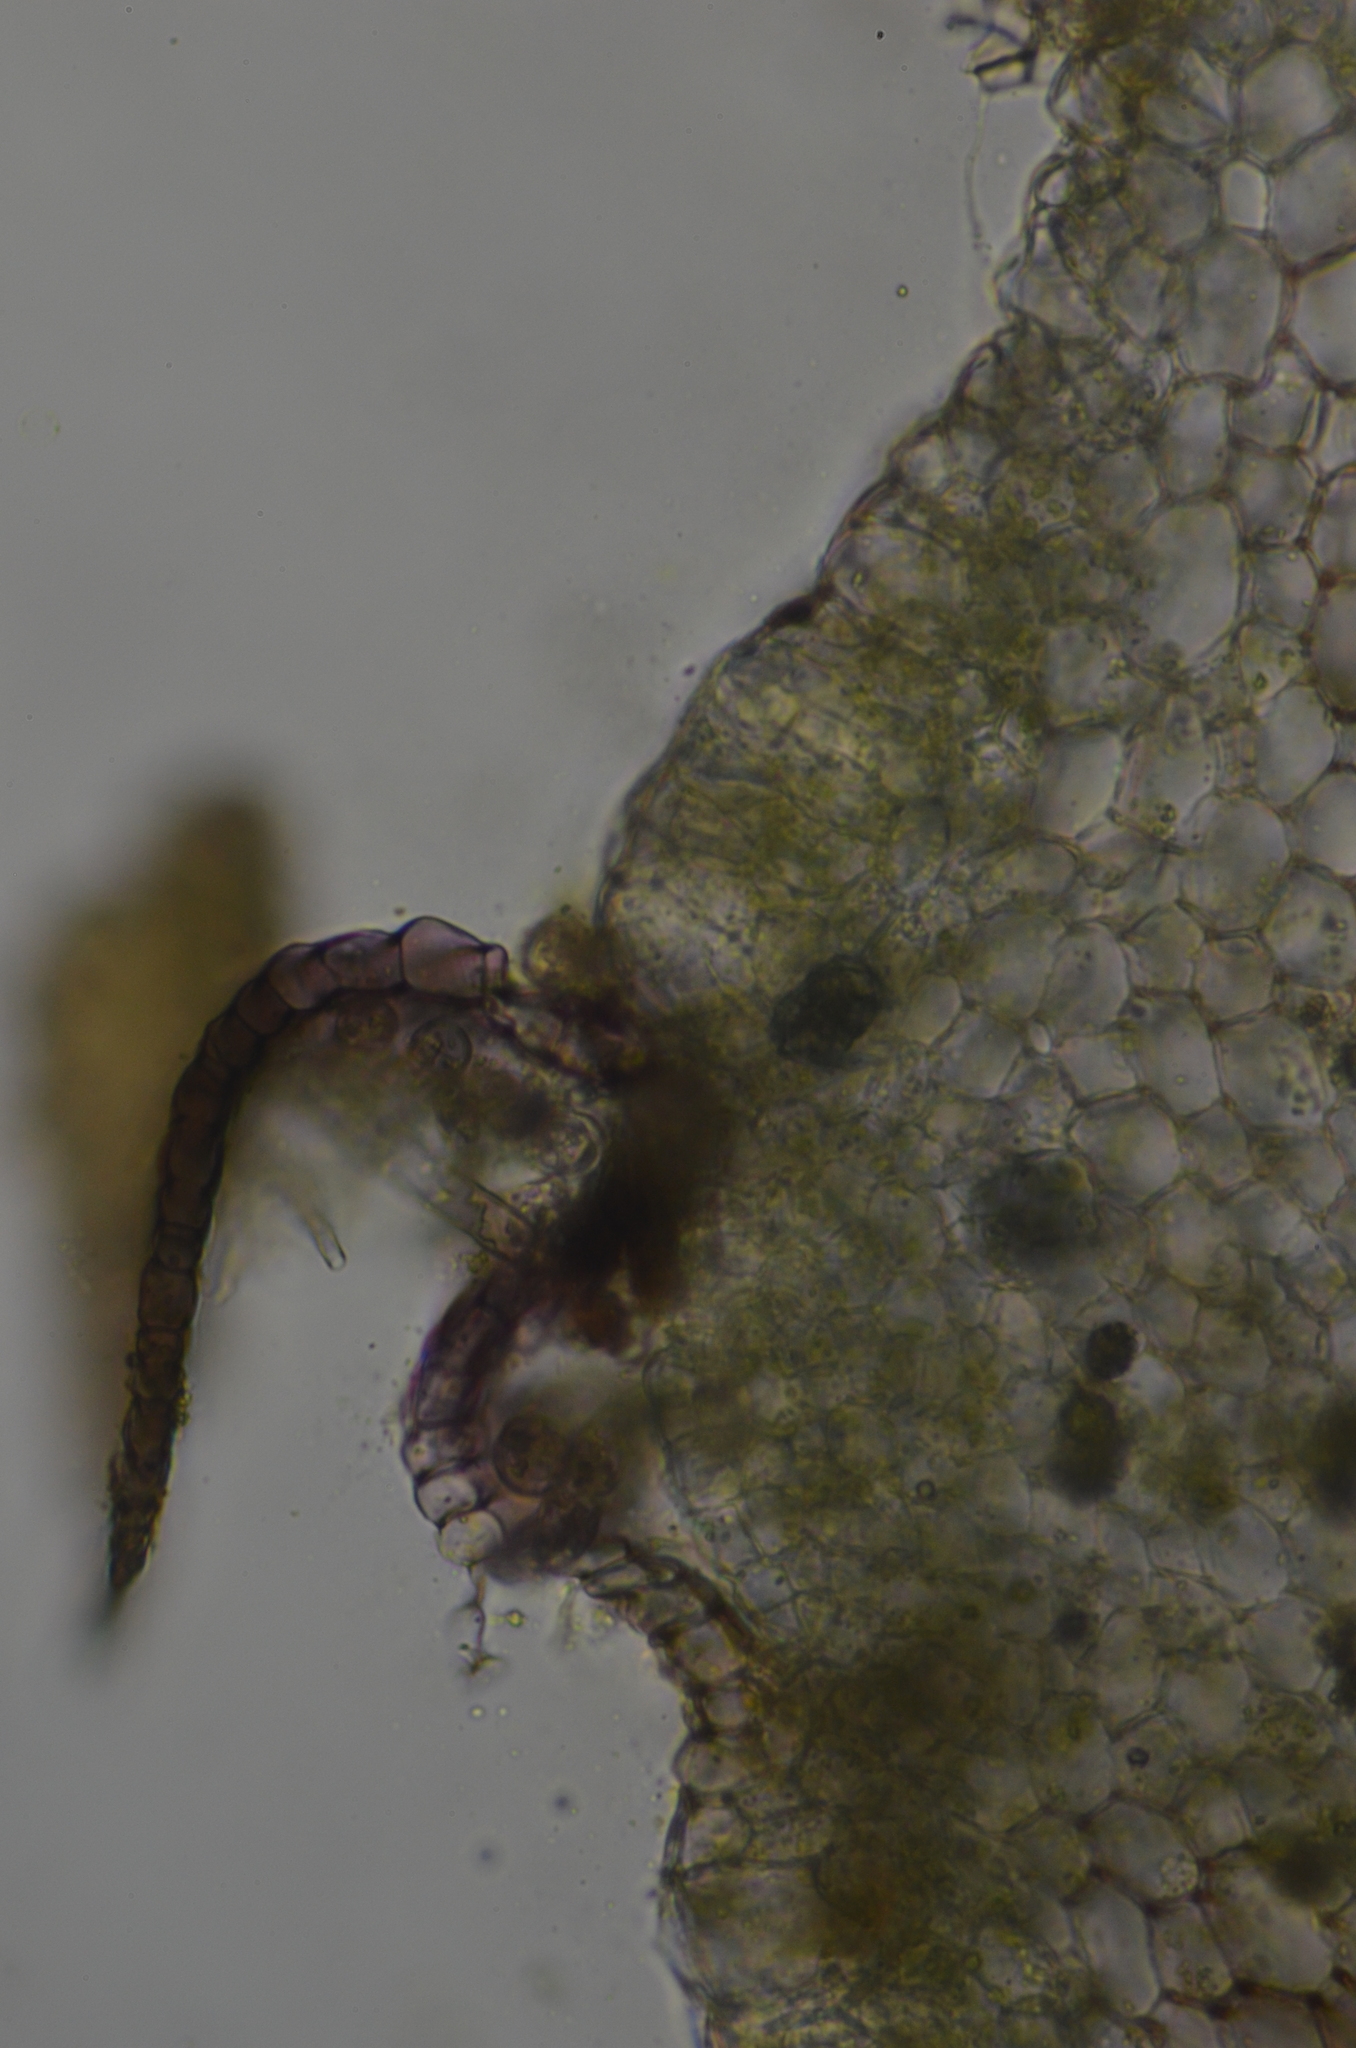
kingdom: Plantae
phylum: Marchantiophyta
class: Marchantiopsida
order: Marchantiales
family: Marchantiaceae
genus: Marchantia
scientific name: Marchantia quadrata
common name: Narrow mushroom-headed liverwort
